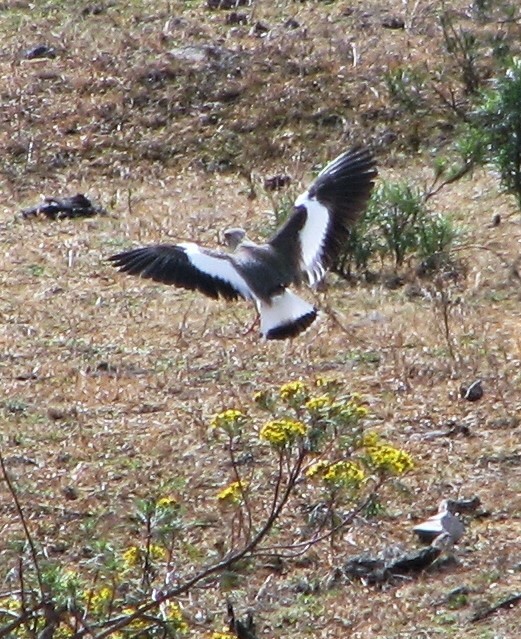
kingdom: Animalia
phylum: Chordata
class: Aves
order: Charadriiformes
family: Charadriidae
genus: Vanellus
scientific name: Vanellus resplendens
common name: Andean lapwing
